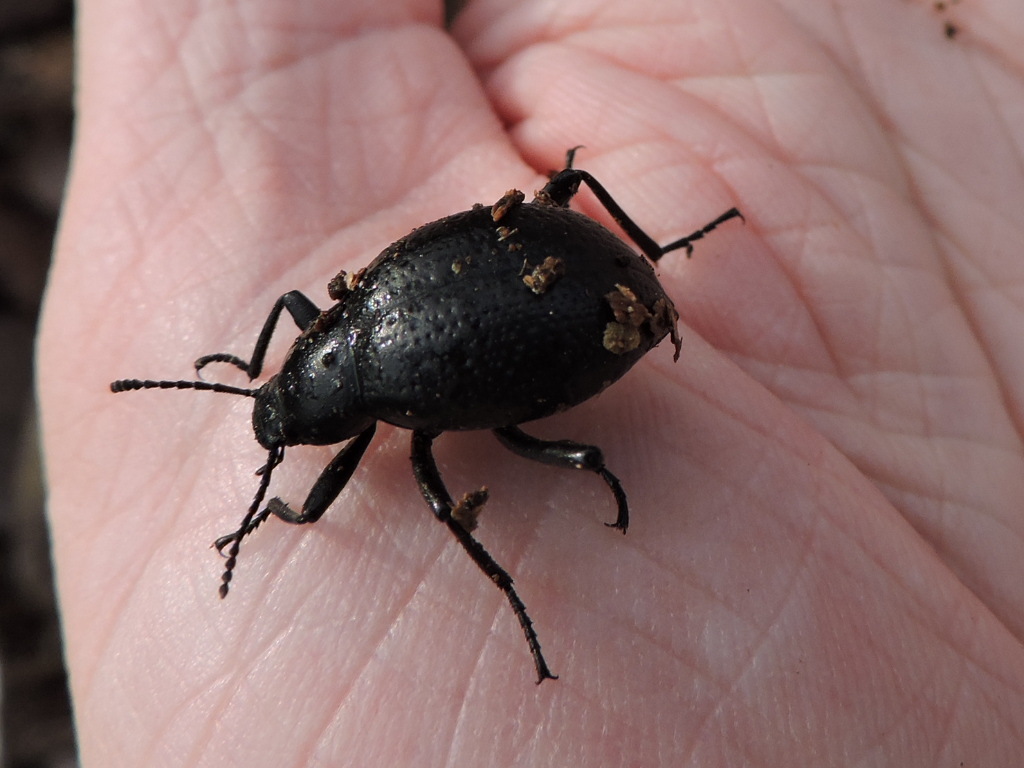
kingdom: Animalia
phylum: Arthropoda
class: Insecta
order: Coleoptera
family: Tenebrionidae
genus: Eleodes
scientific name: Eleodes goryi
